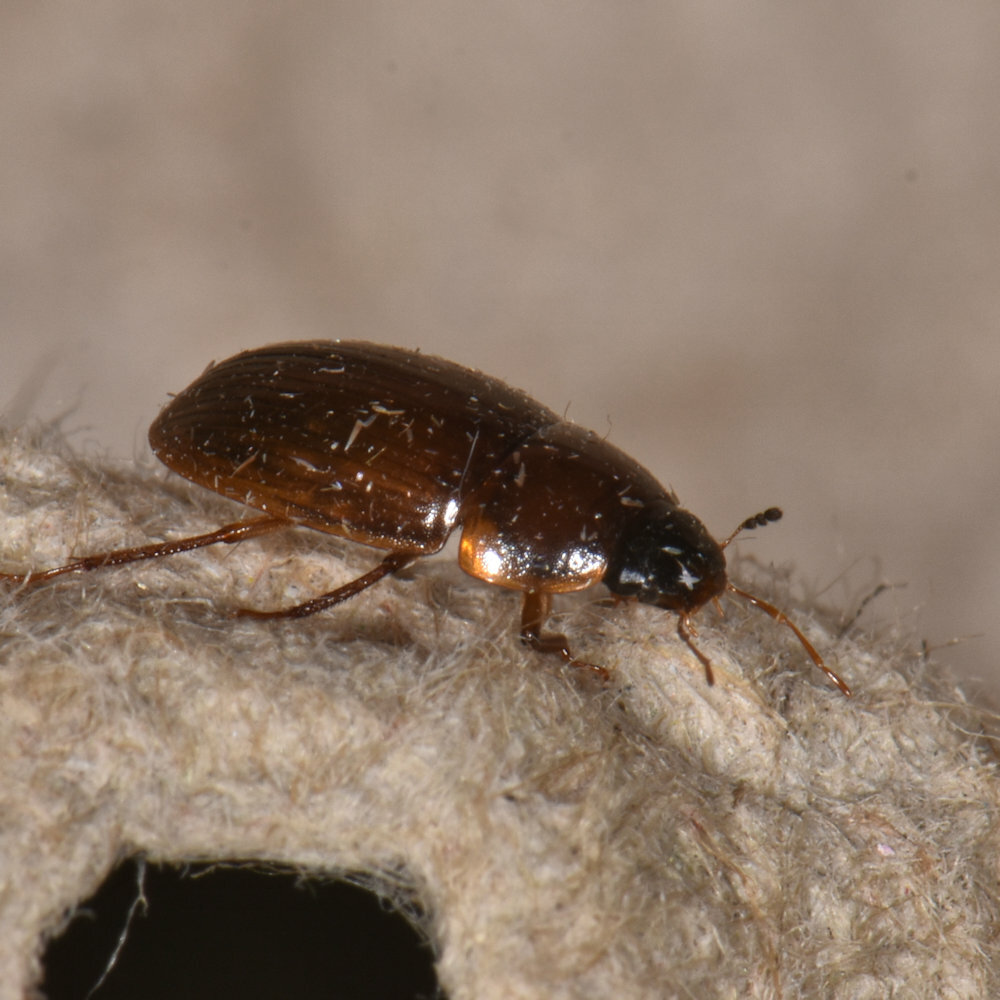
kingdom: Animalia
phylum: Arthropoda
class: Insecta
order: Coleoptera
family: Hydrophilidae
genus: Cymbiodyta
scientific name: Cymbiodyta bifida
